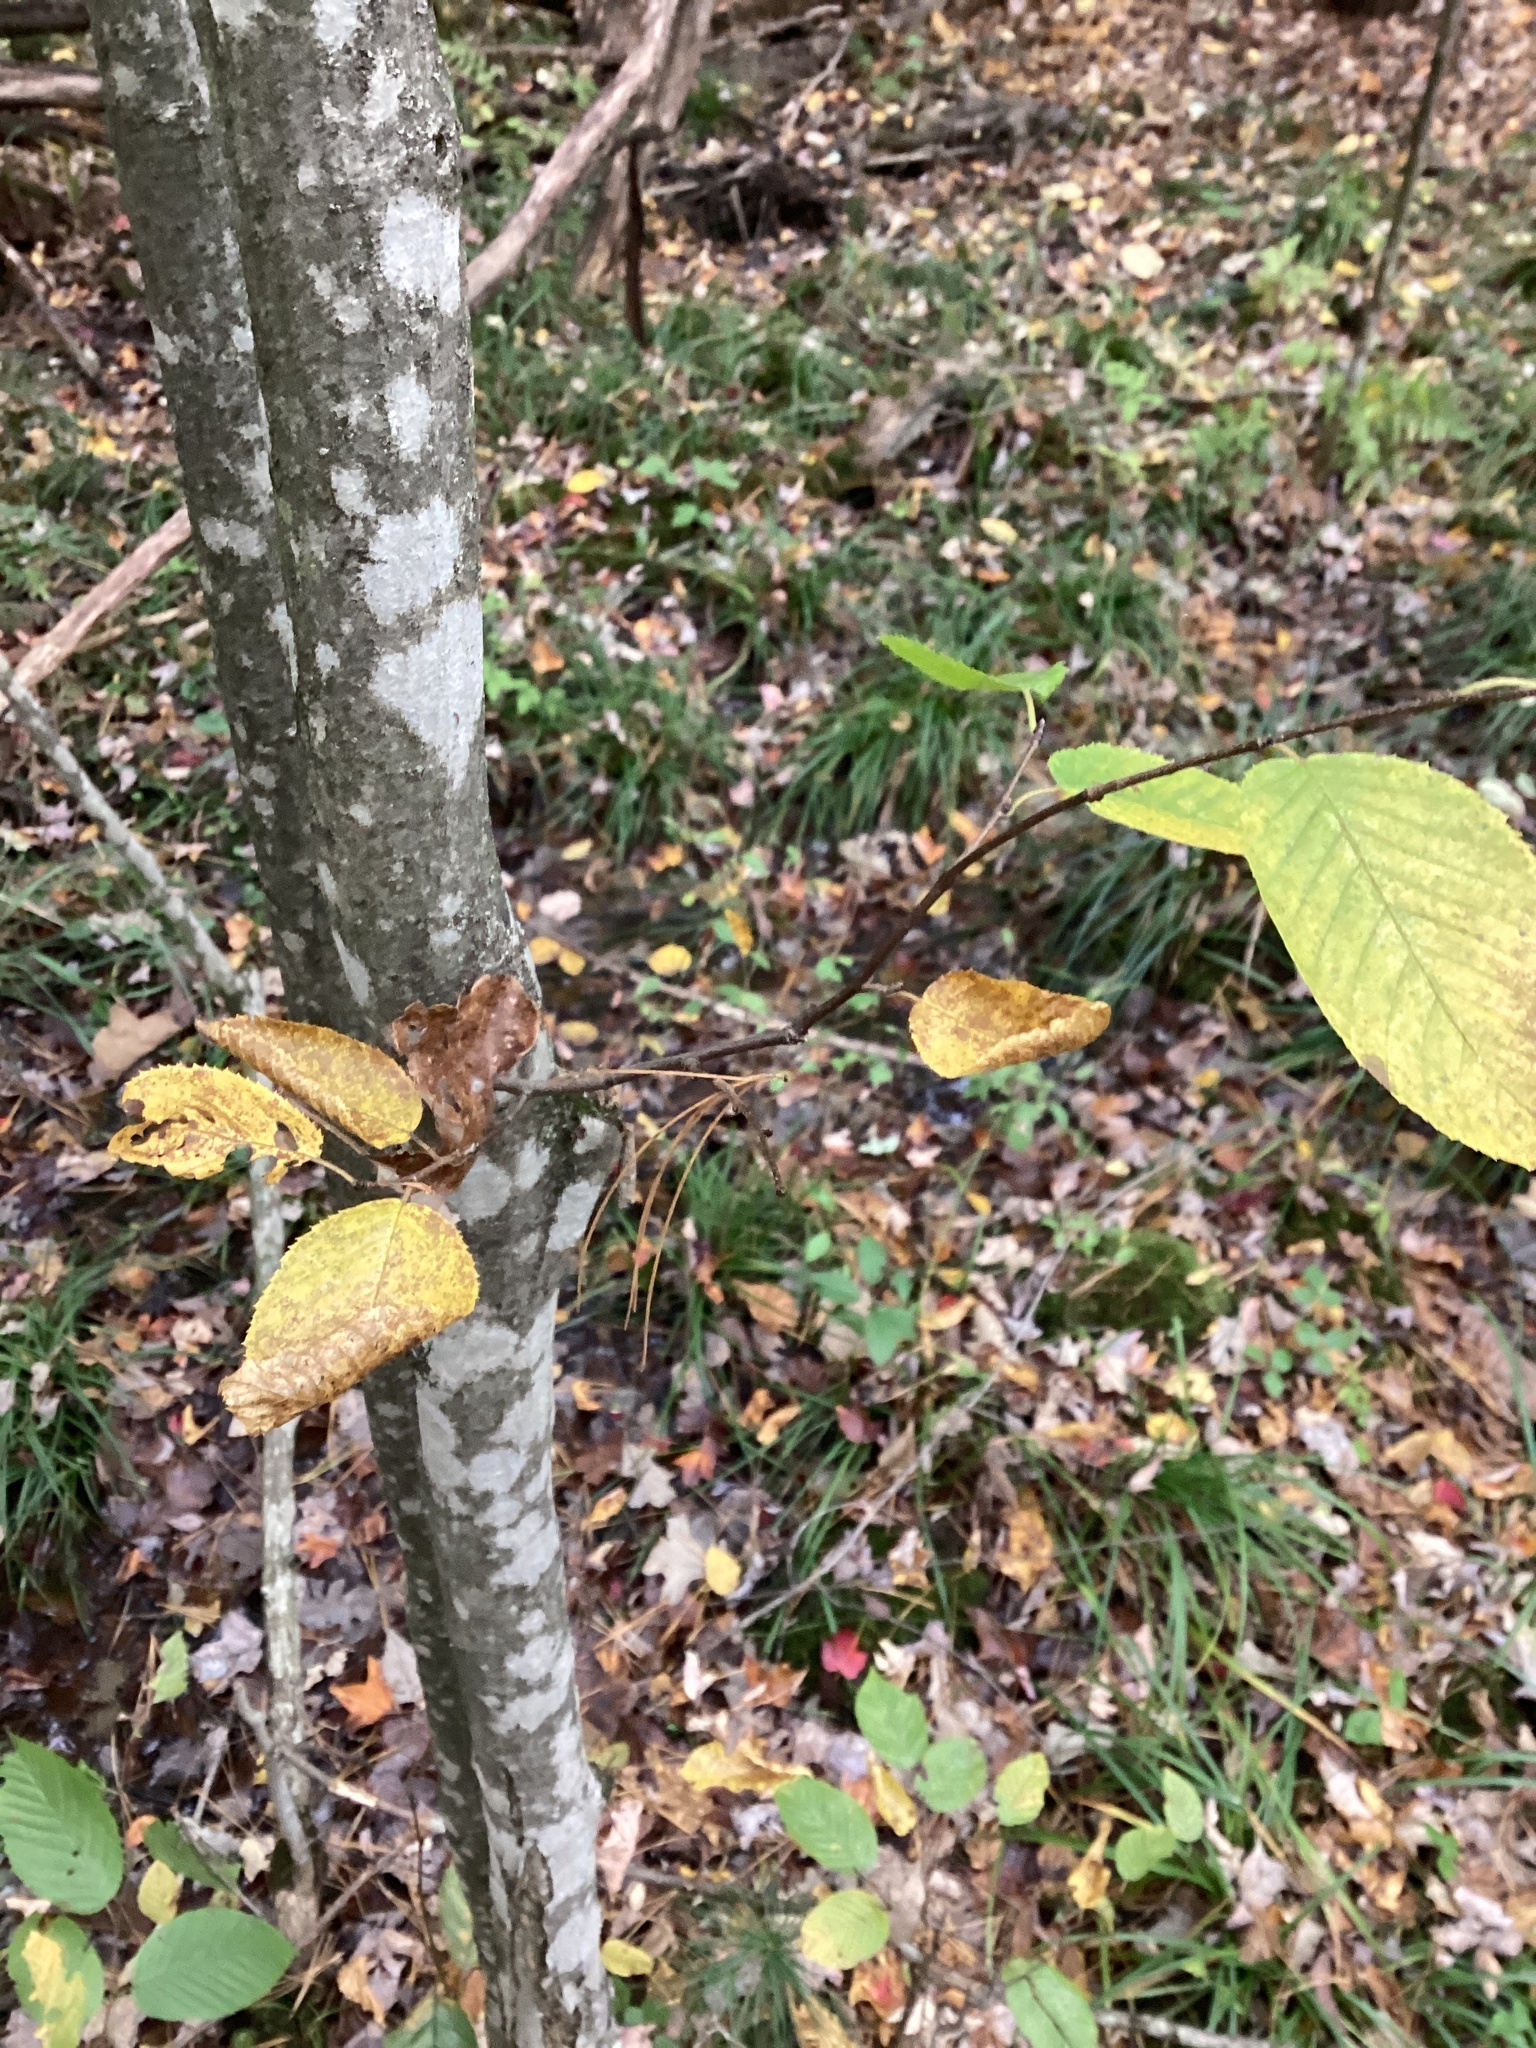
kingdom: Plantae
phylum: Tracheophyta
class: Magnoliopsida
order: Fagales
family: Betulaceae
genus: Carpinus
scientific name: Carpinus caroliniana
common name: American hornbeam
